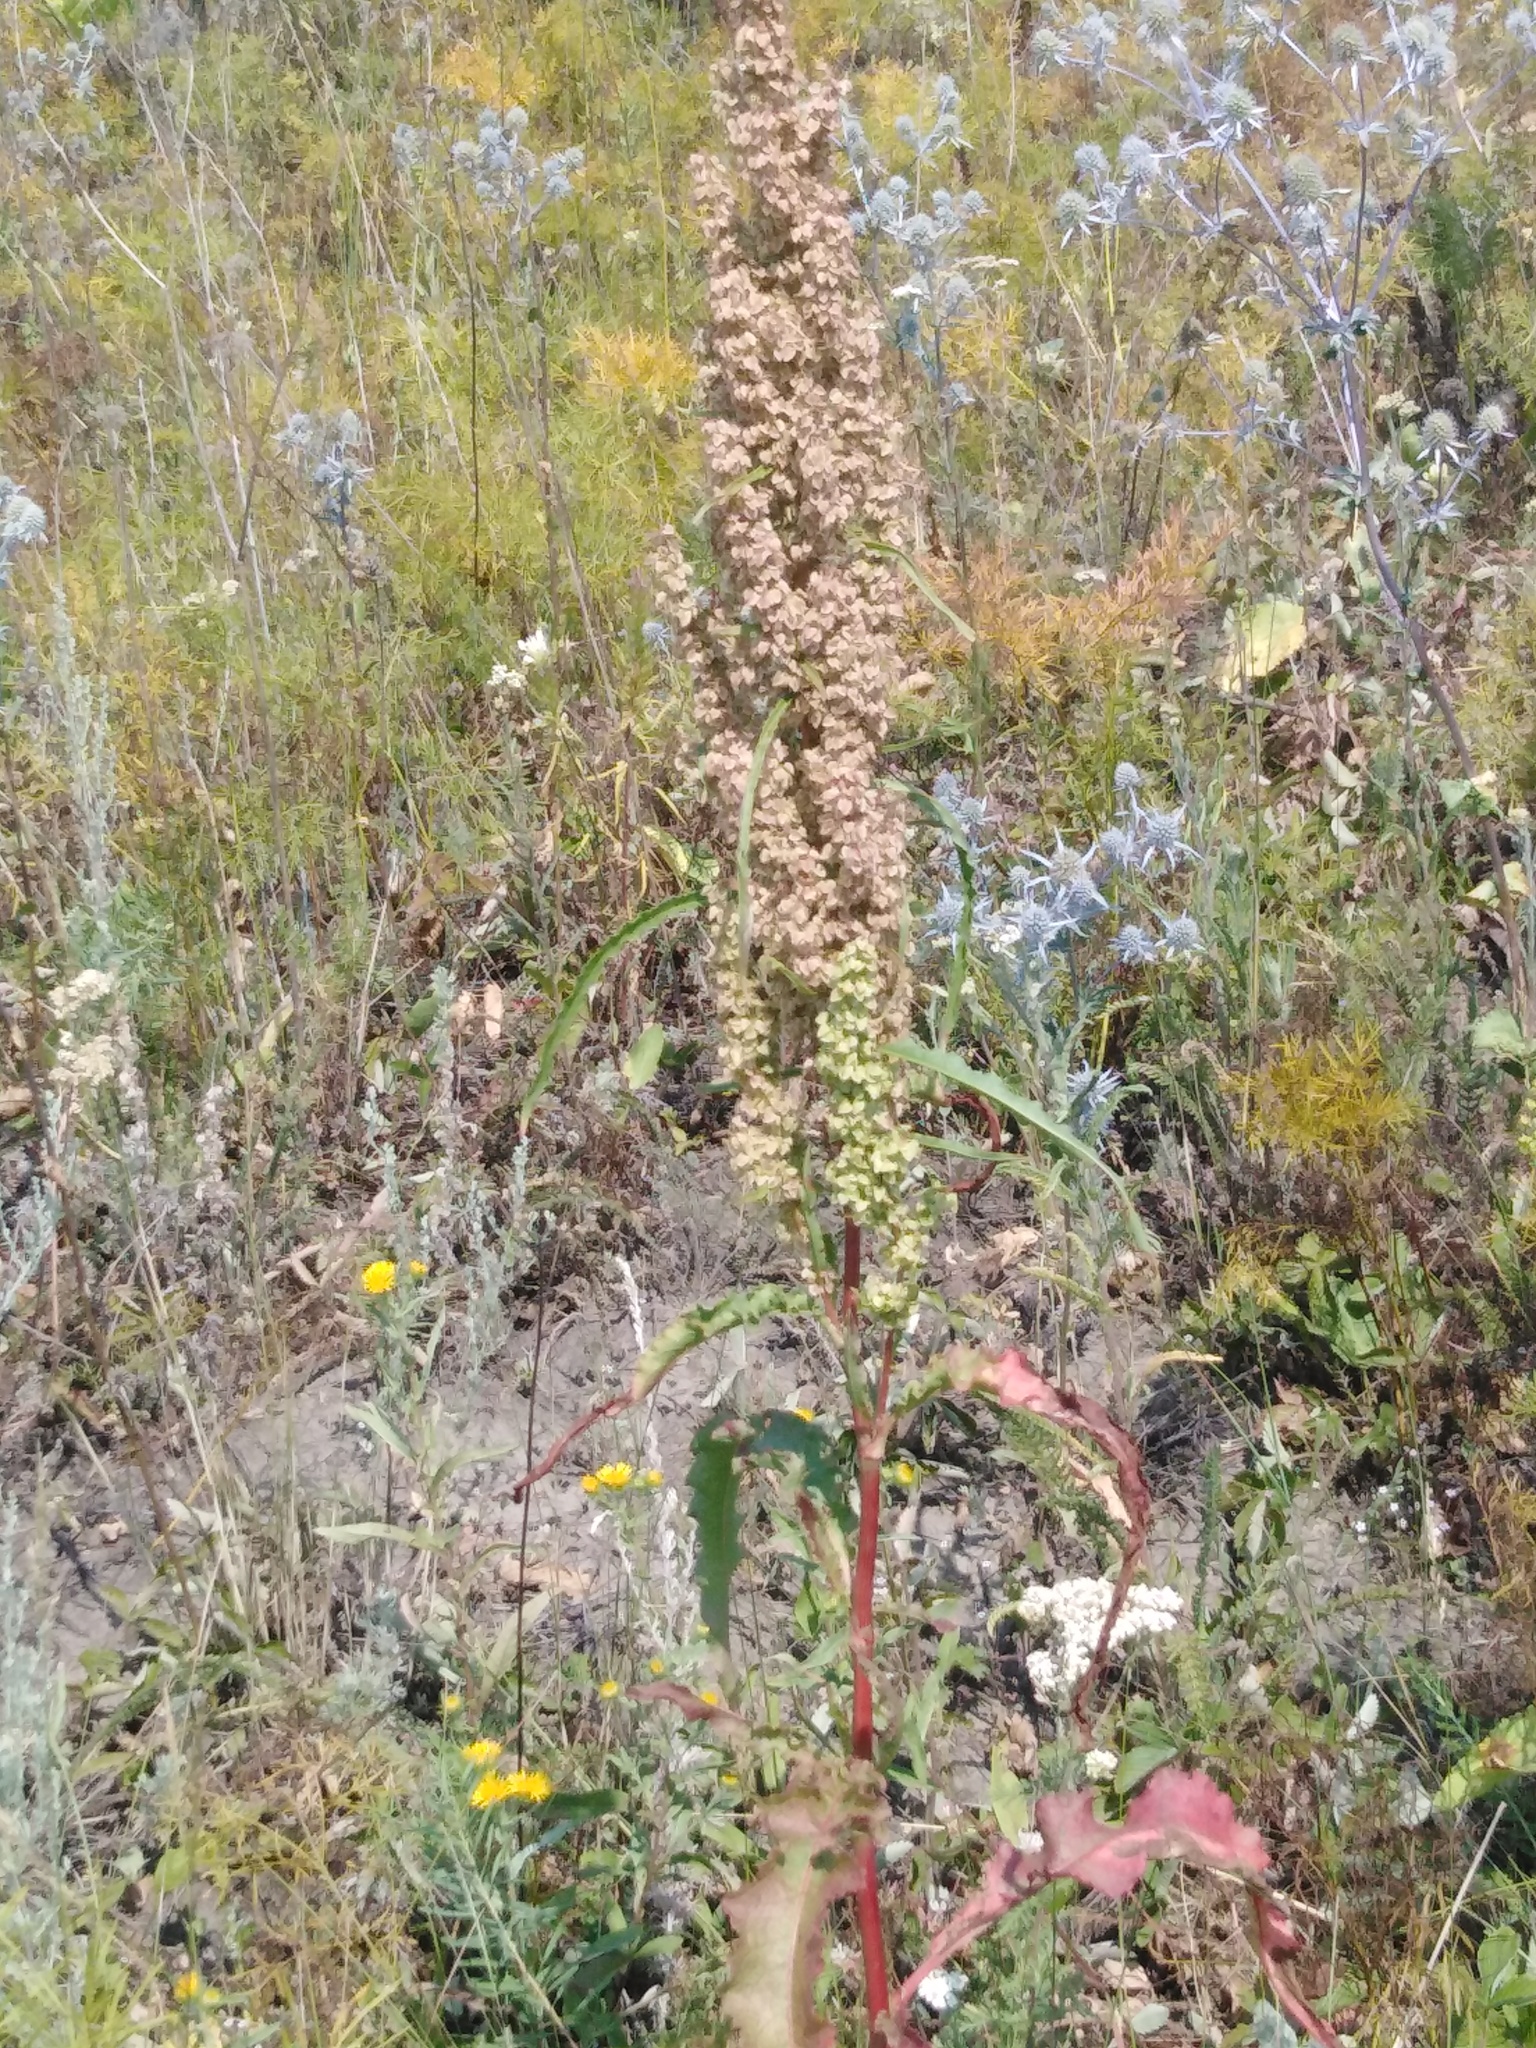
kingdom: Plantae
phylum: Tracheophyta
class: Magnoliopsida
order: Caryophyllales
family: Polygonaceae
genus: Rumex
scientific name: Rumex pseudonatronatus
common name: Field dock
